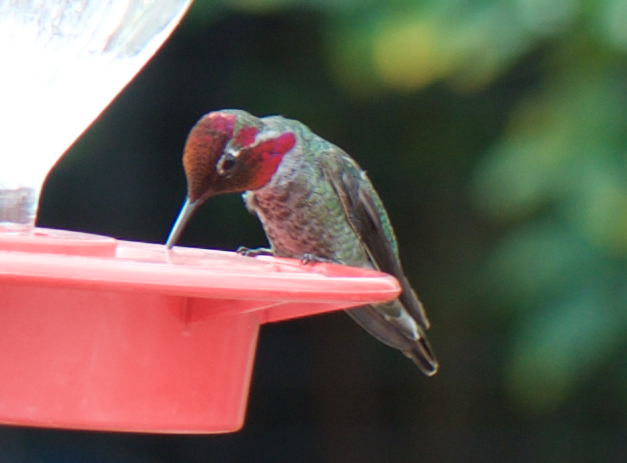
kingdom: Animalia
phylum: Chordata
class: Aves
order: Apodiformes
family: Trochilidae
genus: Calypte
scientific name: Calypte anna
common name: Anna's hummingbird
